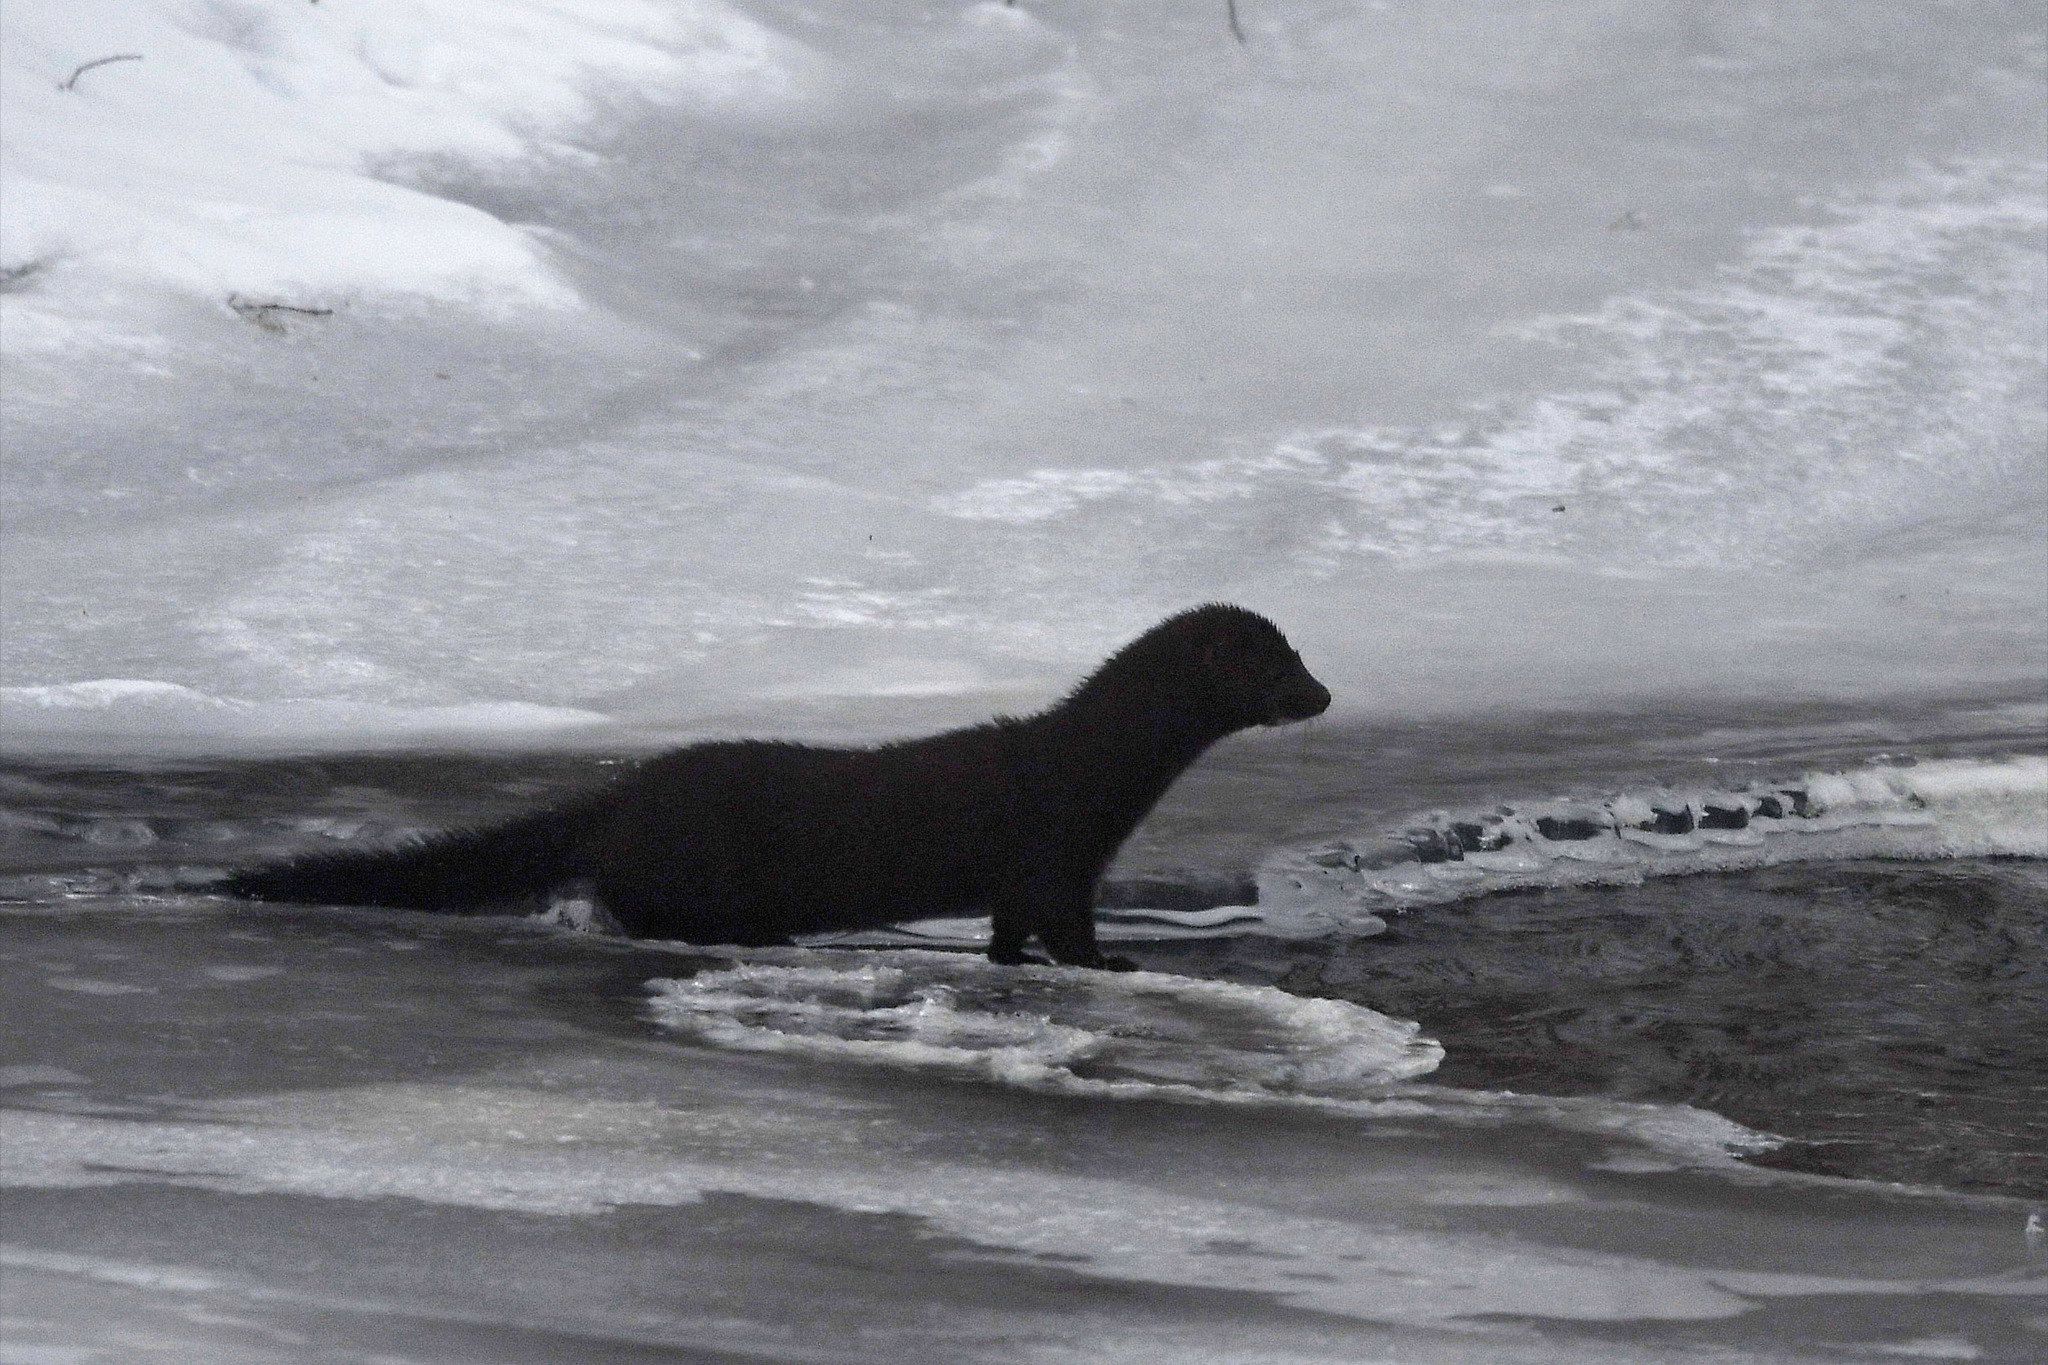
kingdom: Animalia
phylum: Chordata
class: Mammalia
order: Carnivora
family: Mustelidae
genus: Mustela
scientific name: Mustela
